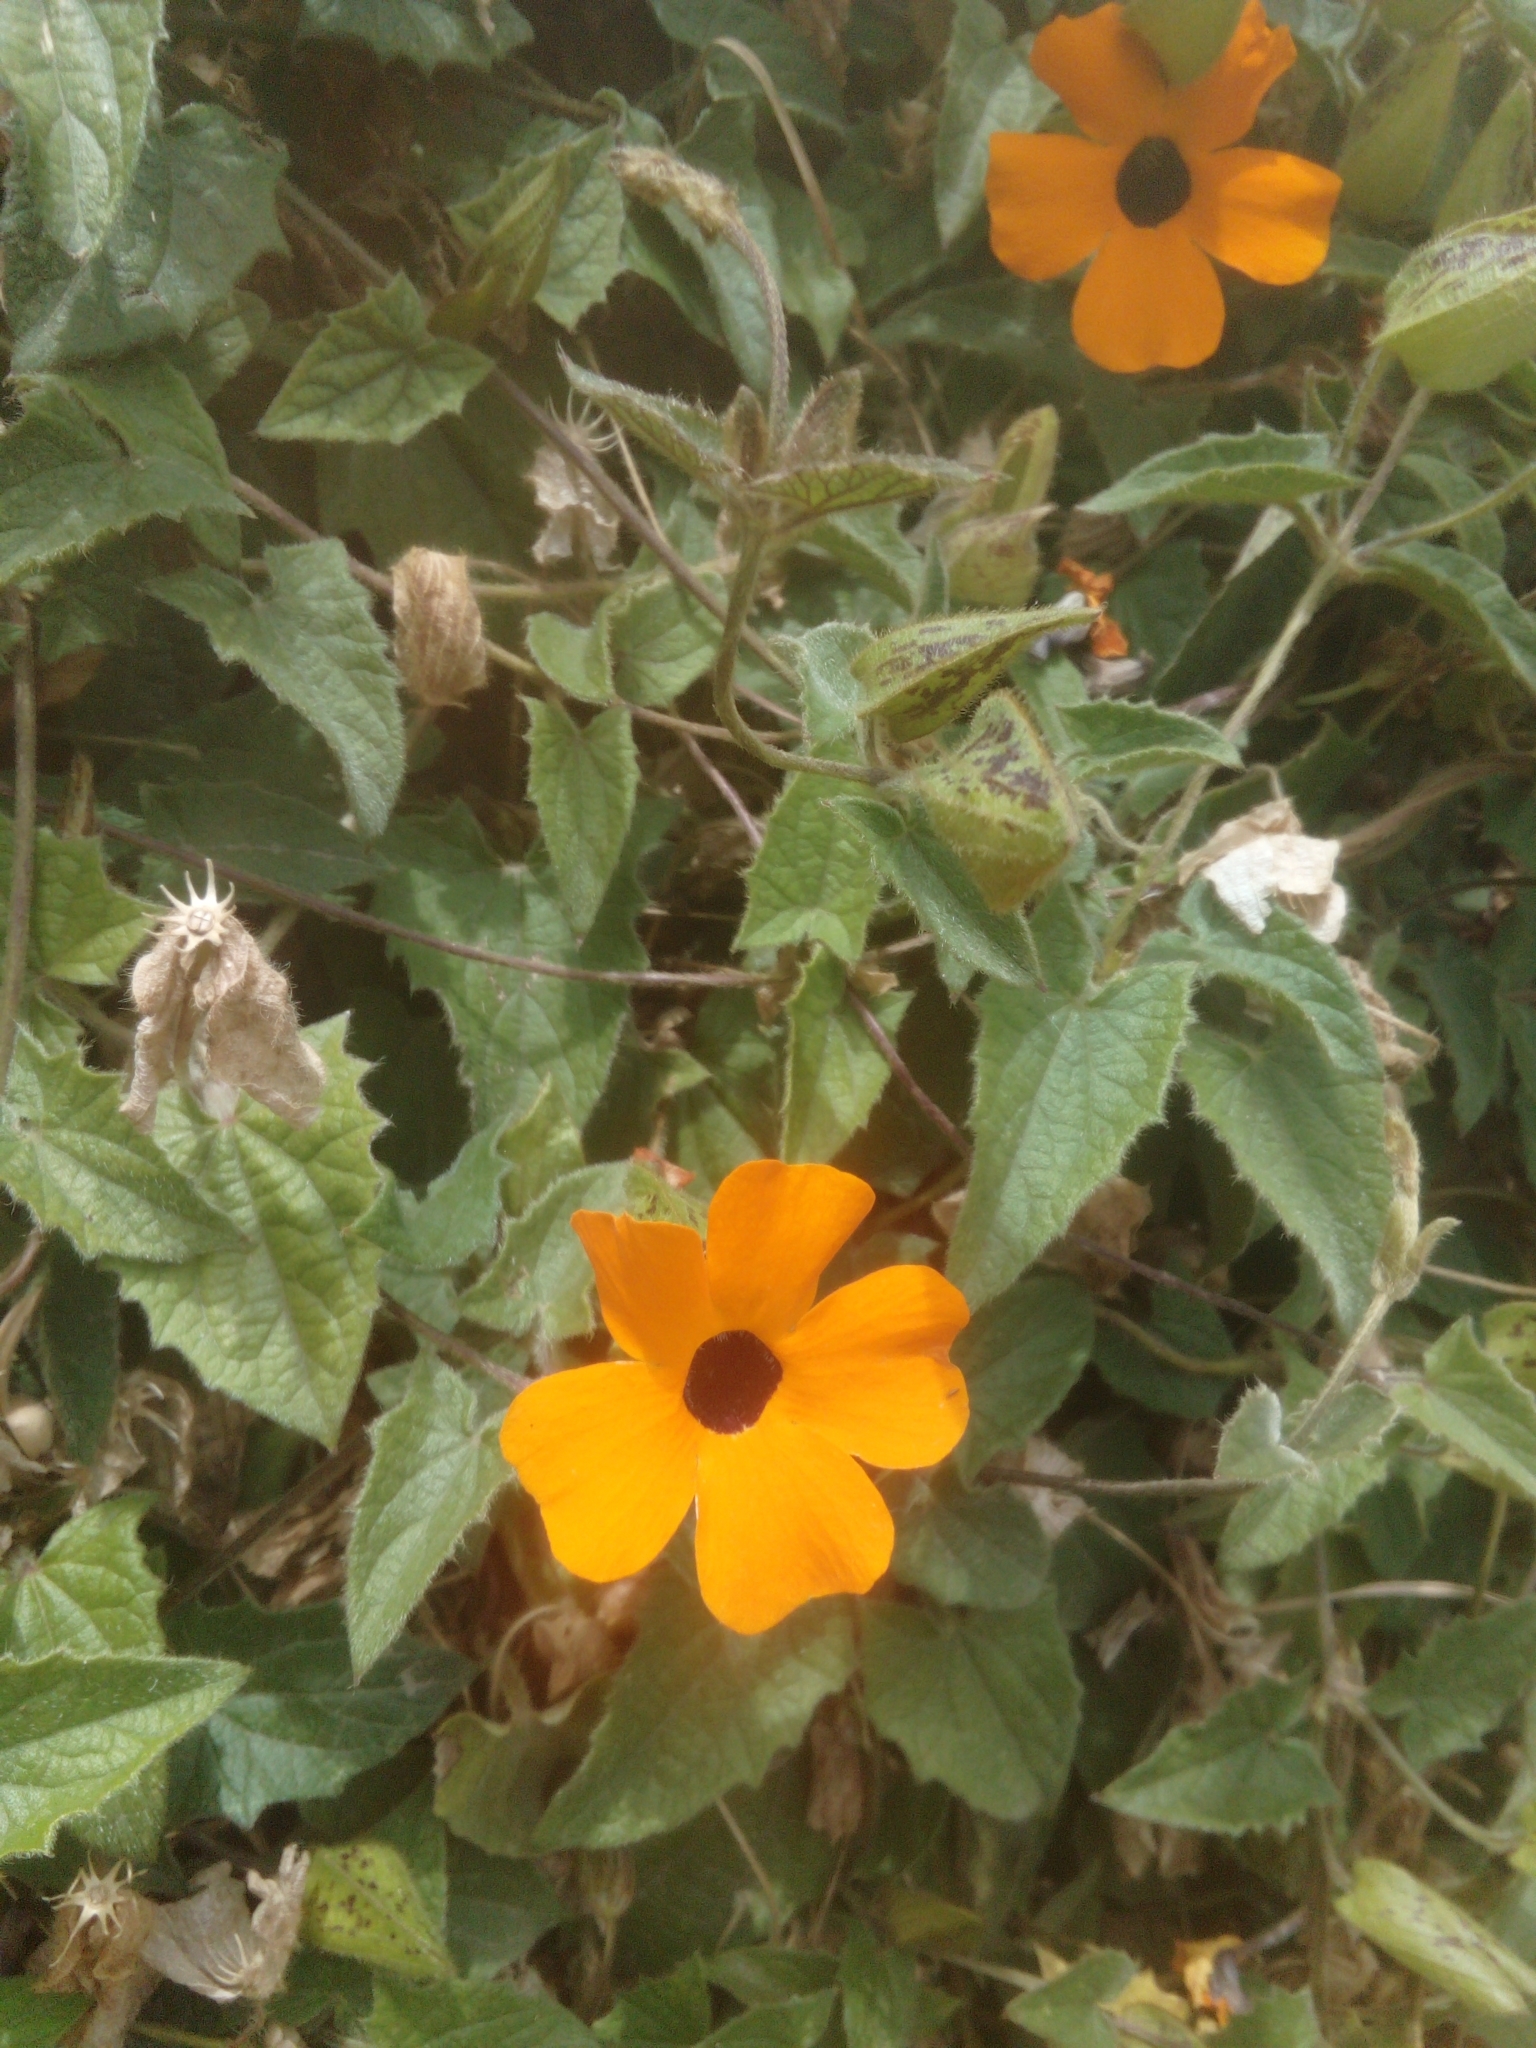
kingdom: Plantae
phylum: Tracheophyta
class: Magnoliopsida
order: Lamiales
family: Acanthaceae
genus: Thunbergia
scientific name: Thunbergia alata
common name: Blackeyed susan vine
